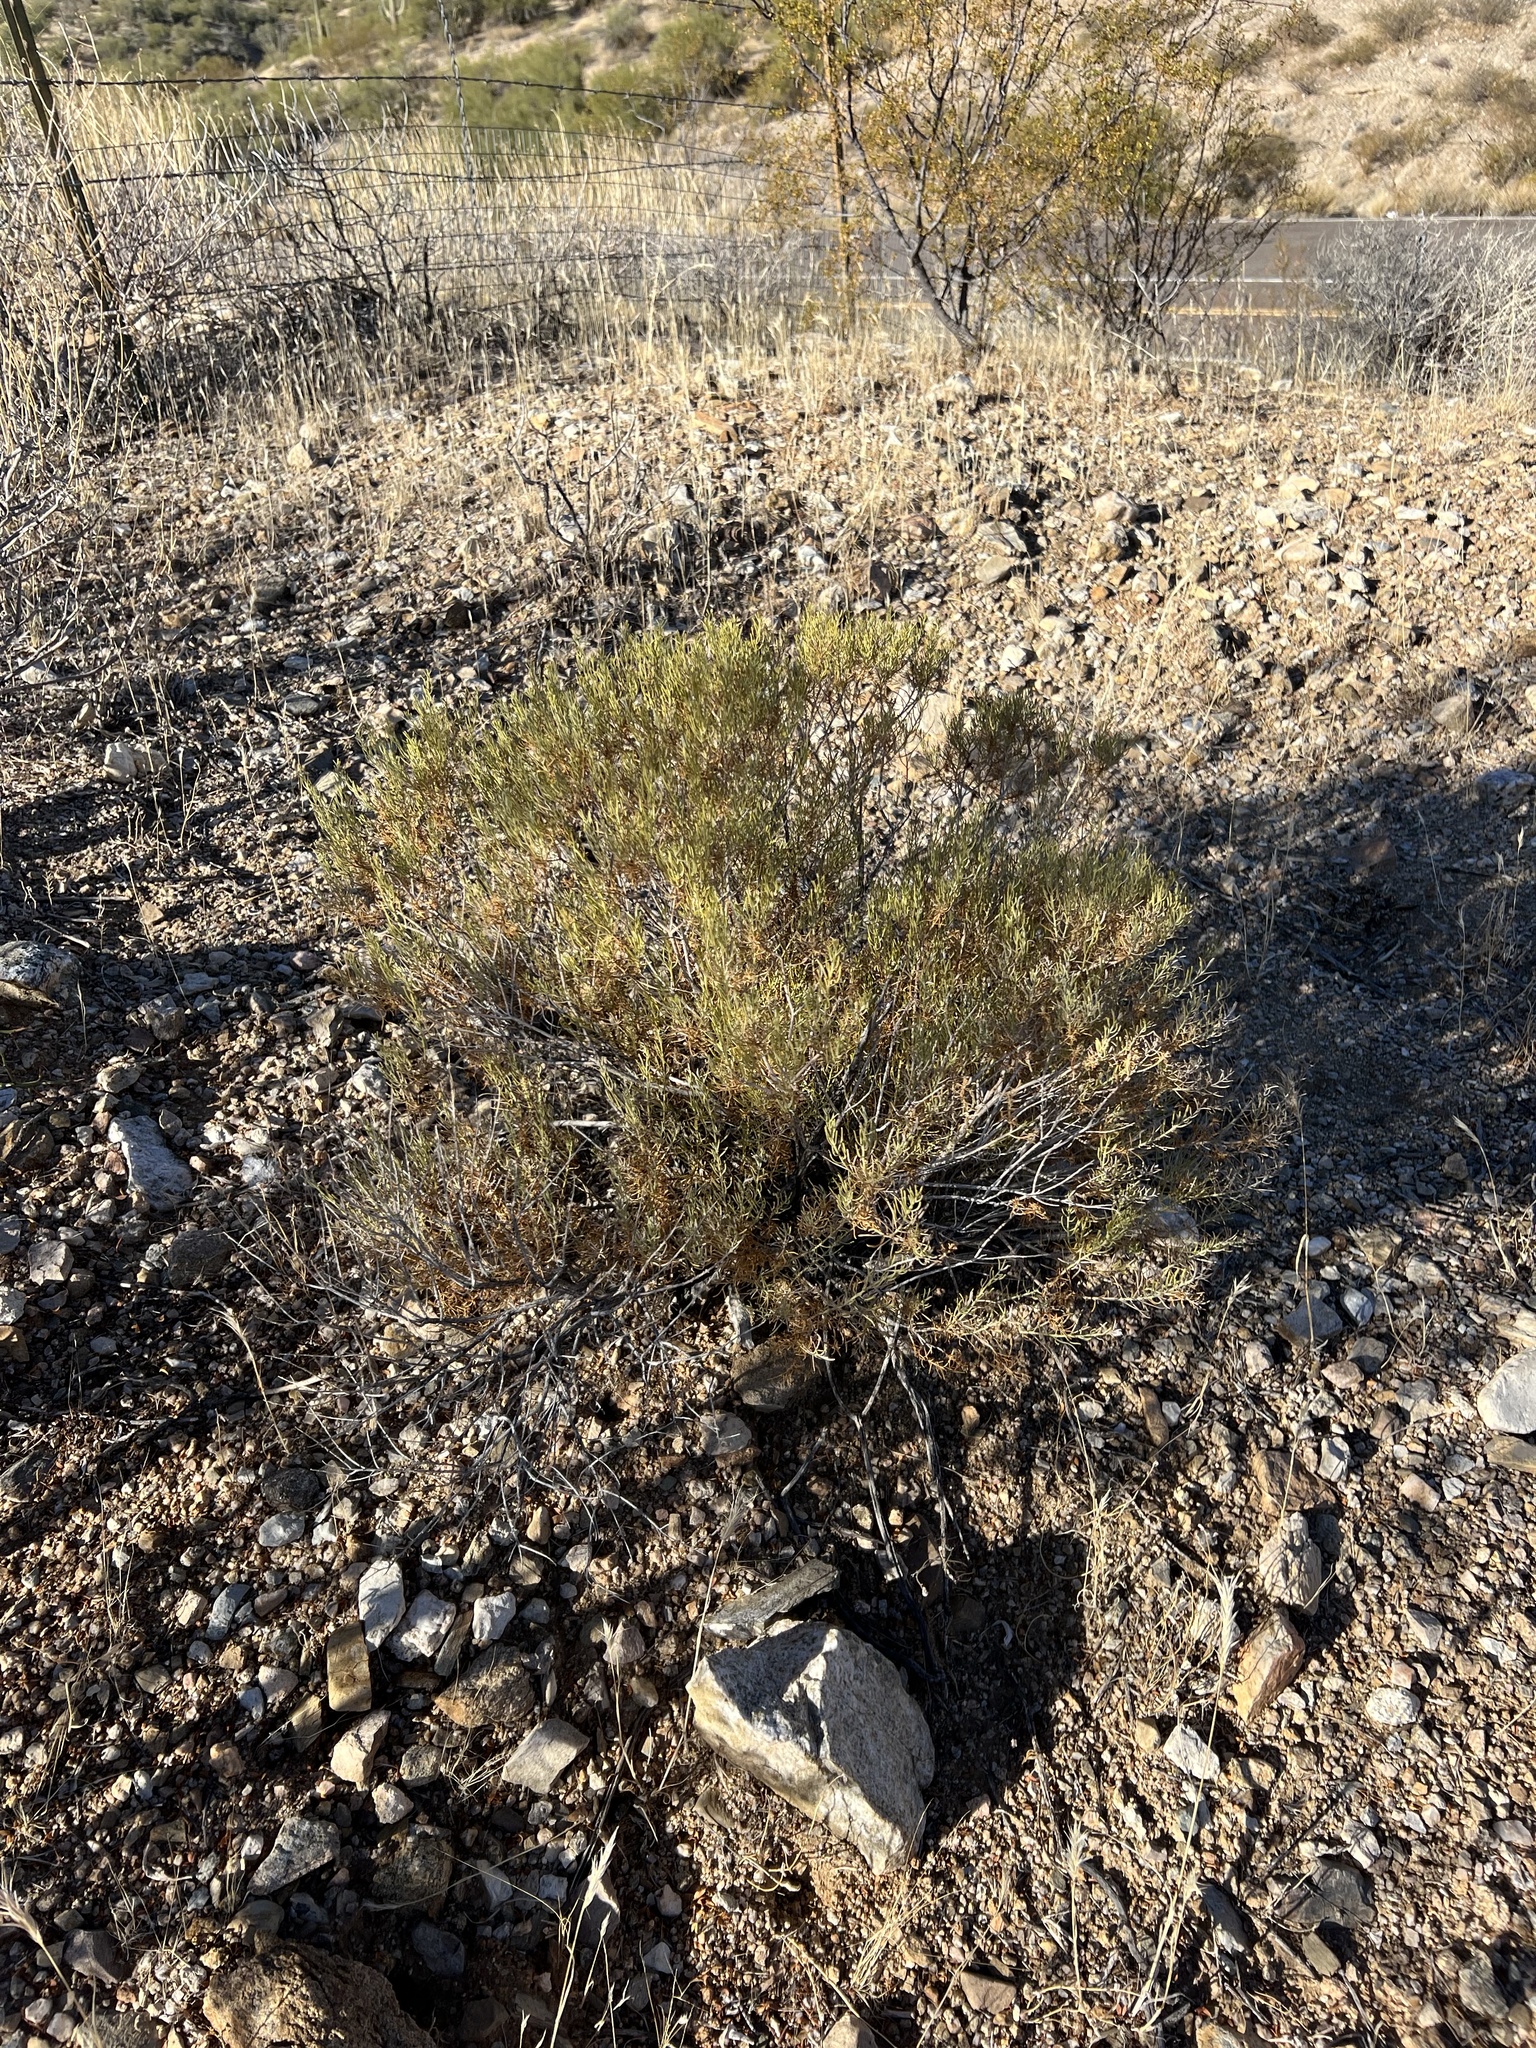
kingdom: Plantae
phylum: Tracheophyta
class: Magnoliopsida
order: Asterales
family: Asteraceae
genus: Ericameria
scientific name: Ericameria laricifolia
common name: Turpentine-bush
